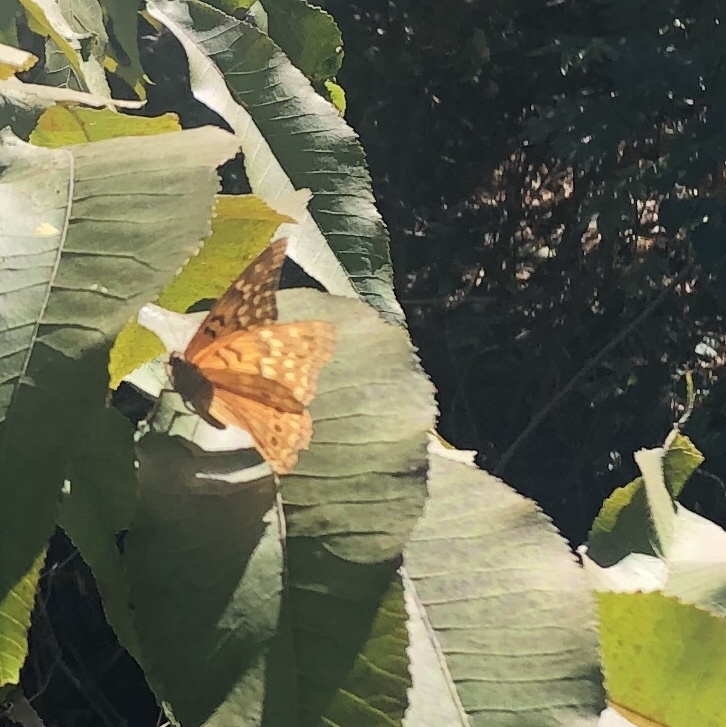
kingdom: Animalia
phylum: Arthropoda
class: Insecta
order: Lepidoptera
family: Nymphalidae
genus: Asterocampa
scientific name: Asterocampa clyton
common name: Tawny emperor
